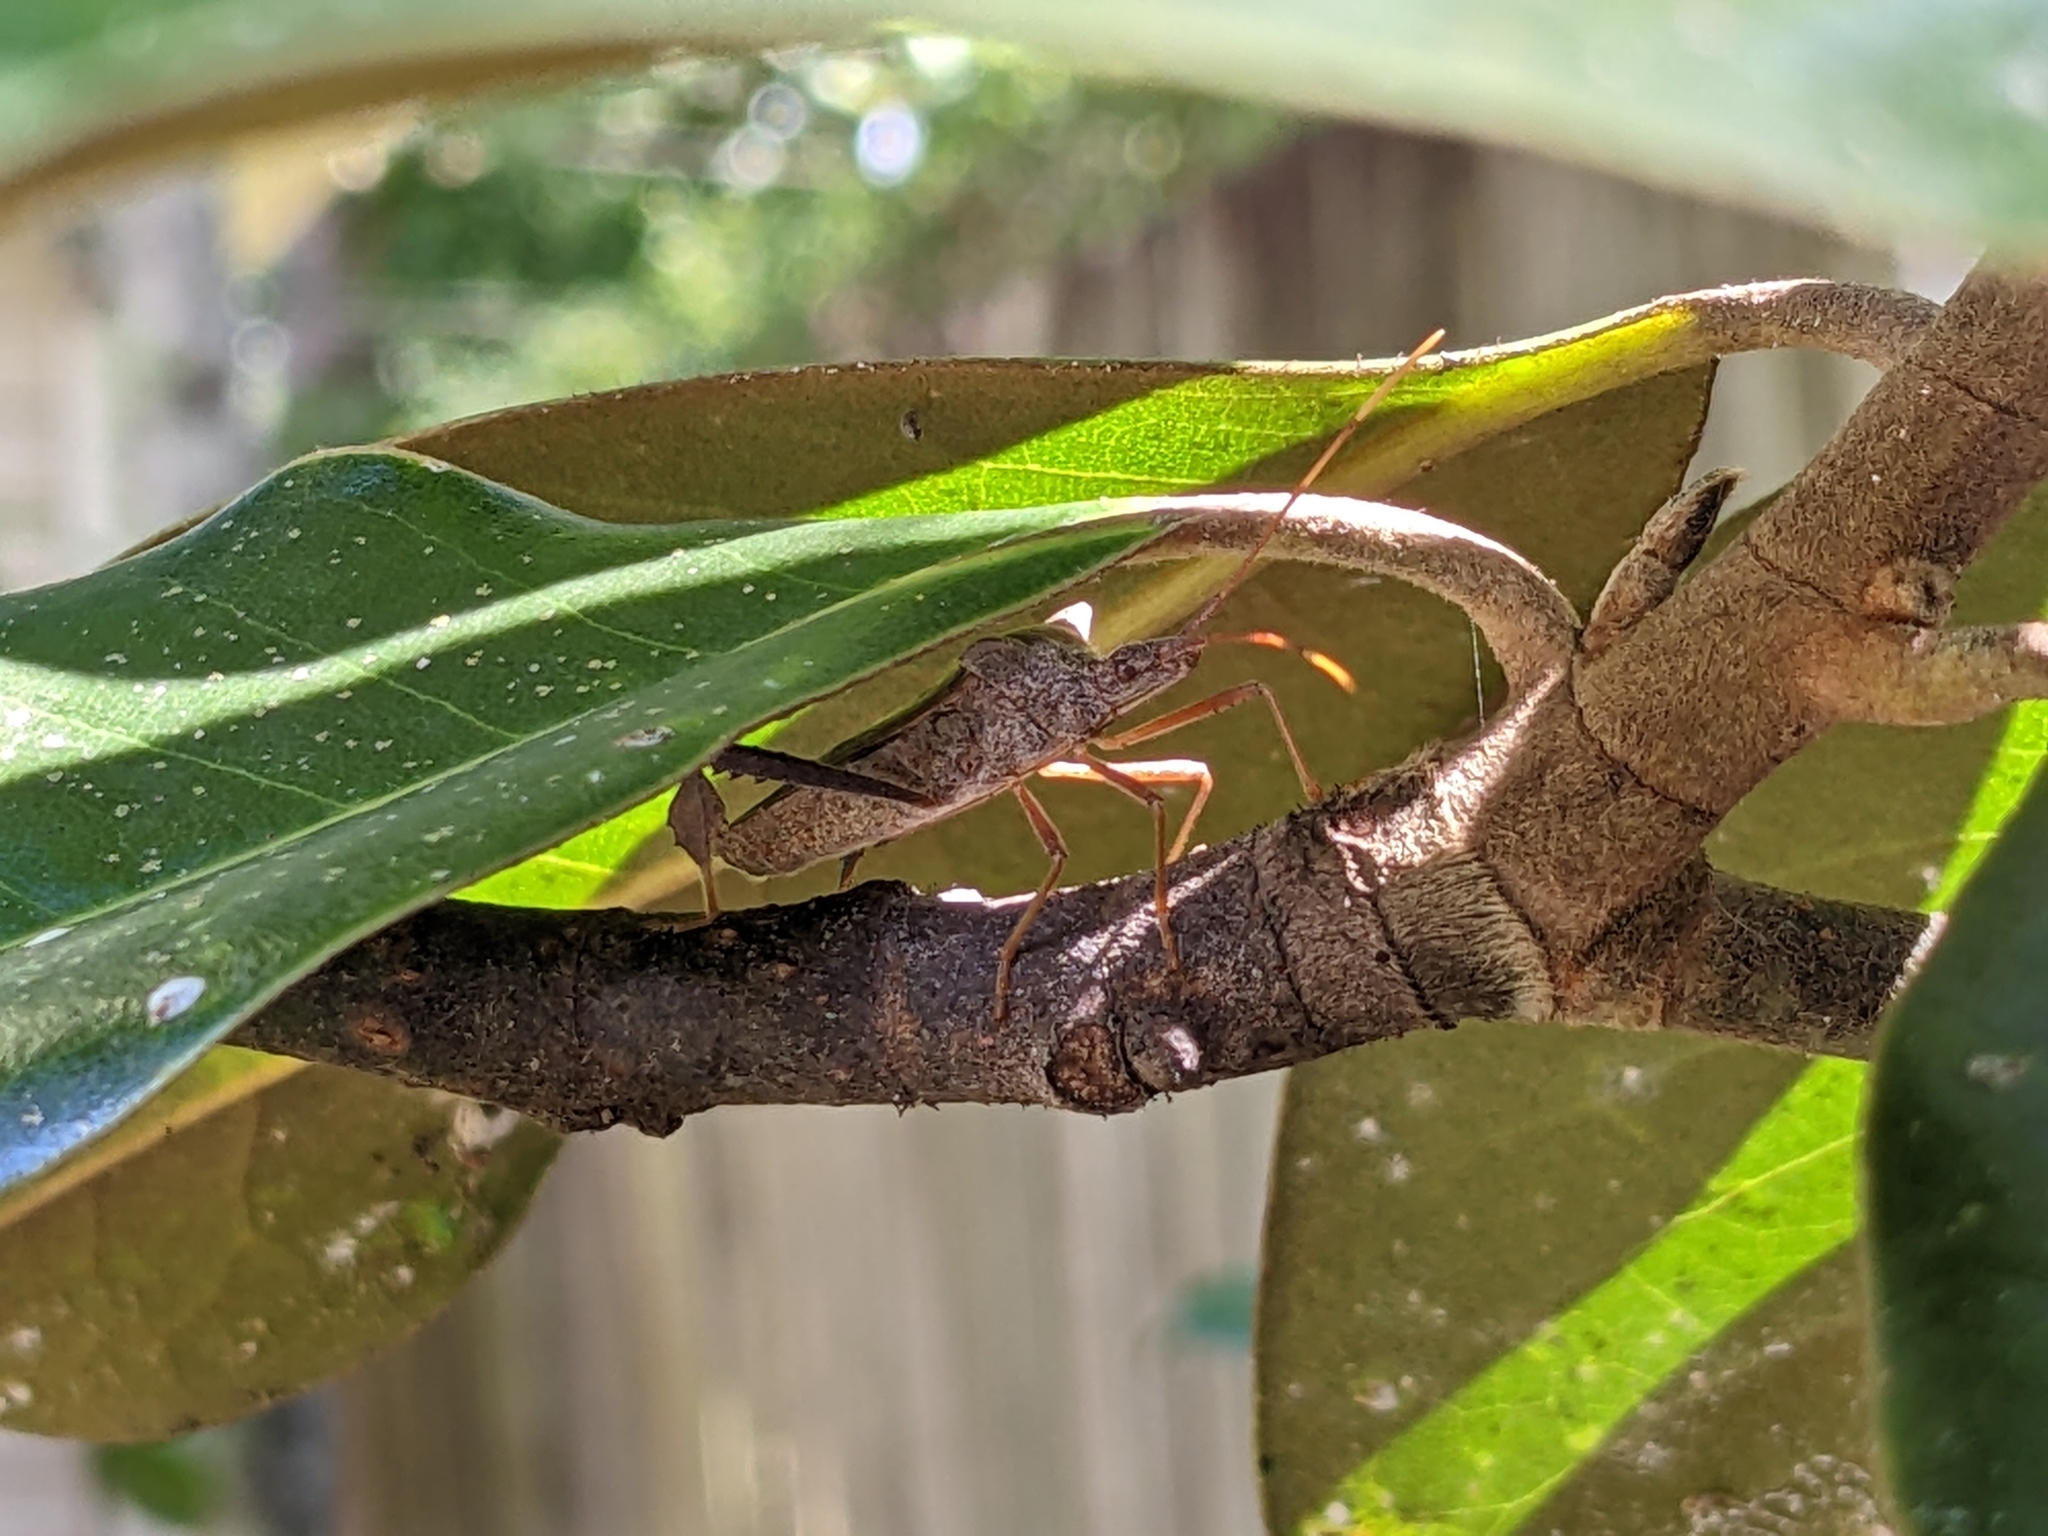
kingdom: Animalia
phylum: Arthropoda
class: Insecta
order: Hemiptera
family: Coreidae
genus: Leptoglossus
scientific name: Leptoglossus fulvicornis
